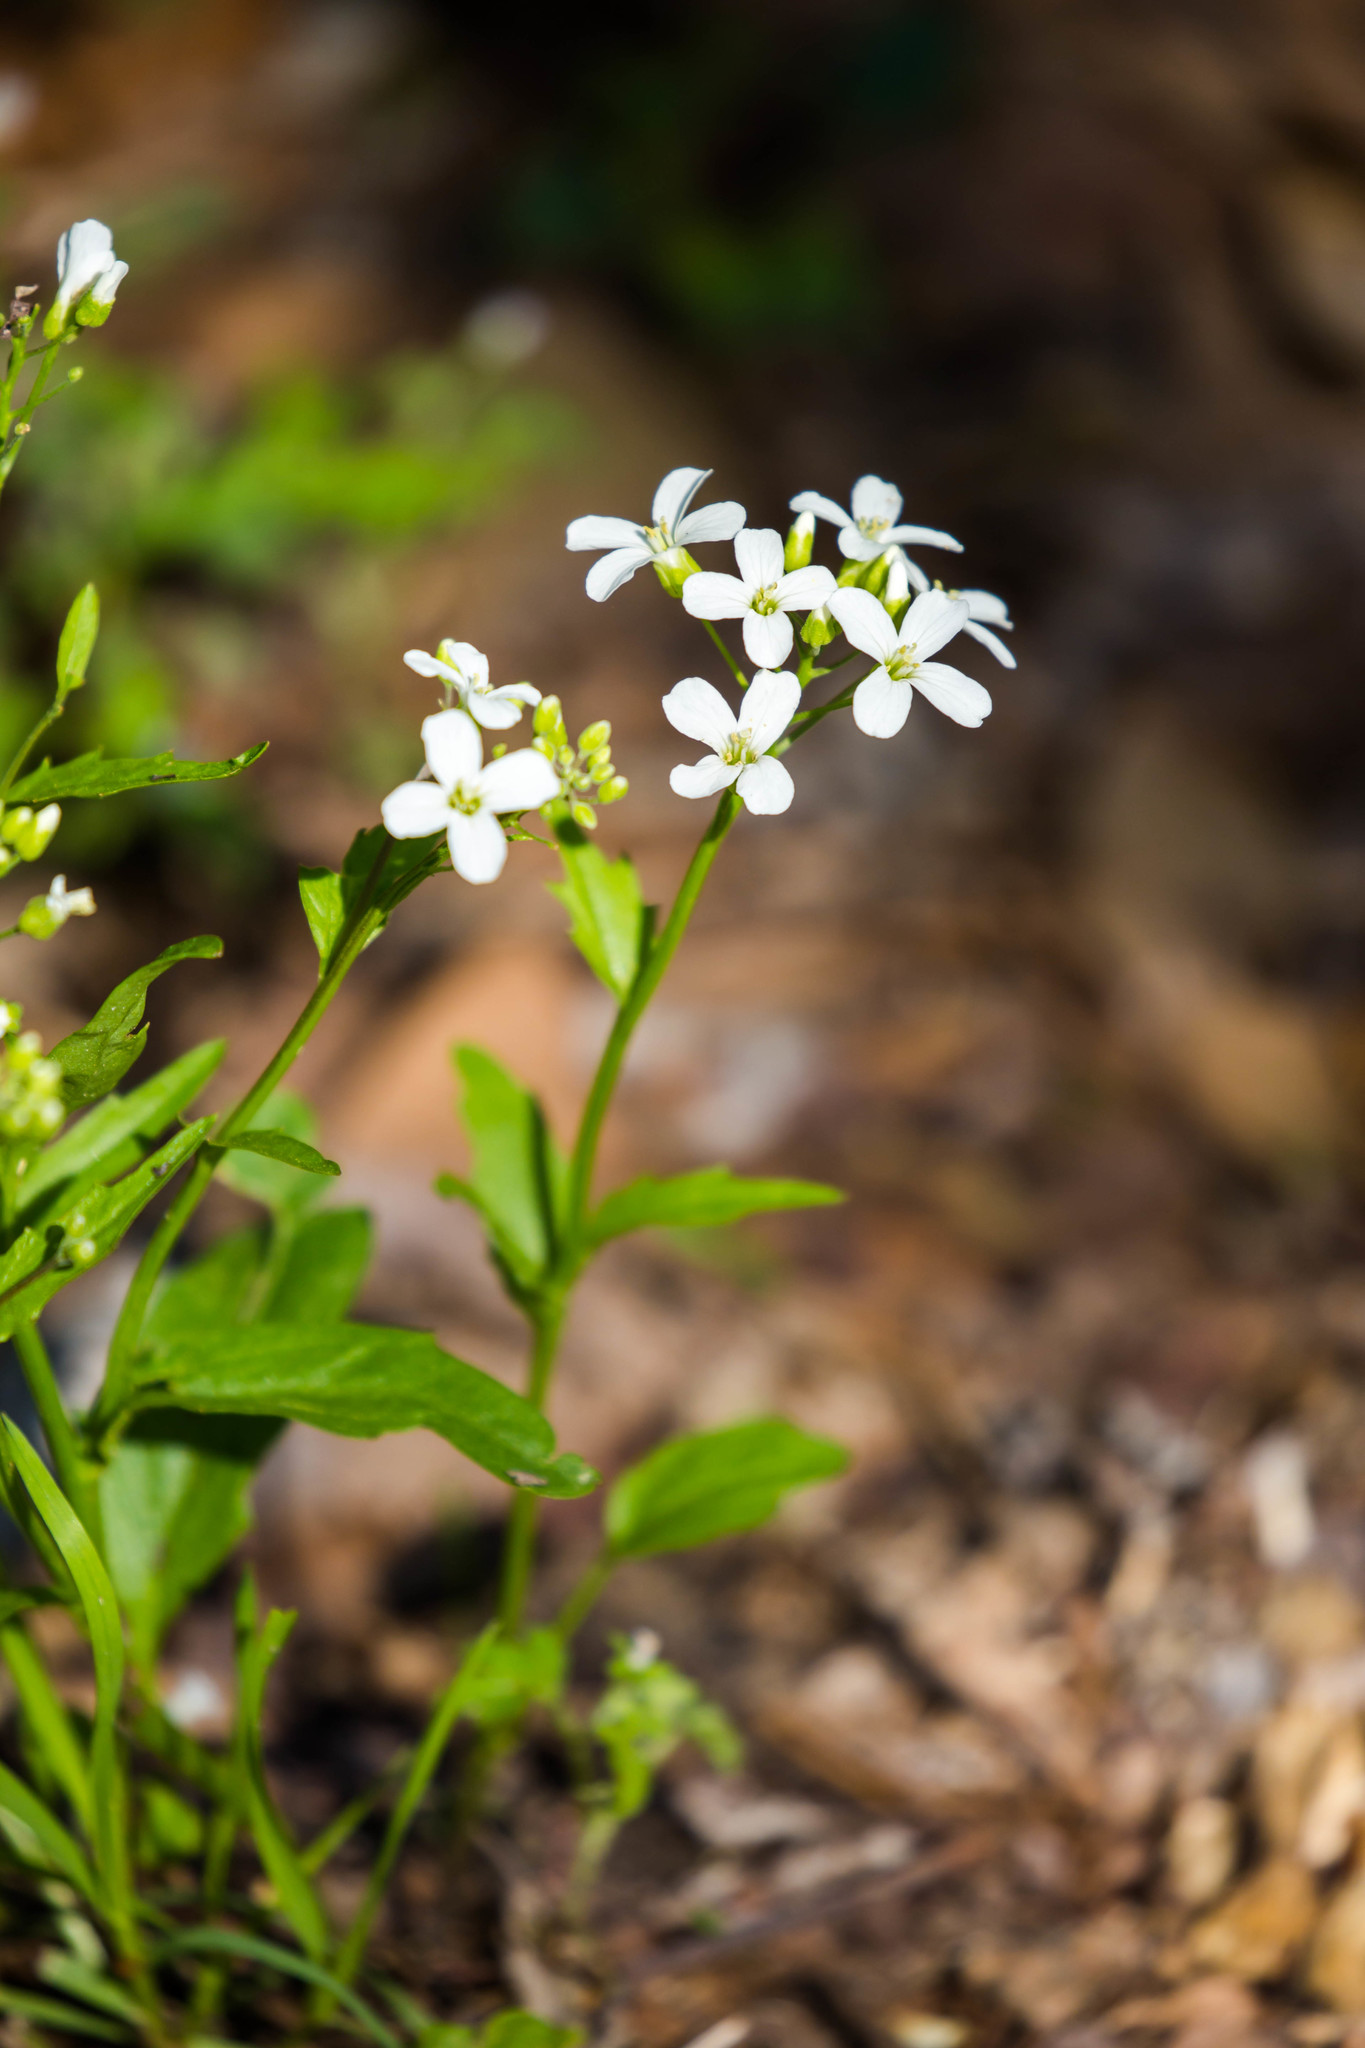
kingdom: Plantae
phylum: Tracheophyta
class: Magnoliopsida
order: Brassicales
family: Brassicaceae
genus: Cardamine
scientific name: Cardamine bulbosa
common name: Spring cress
